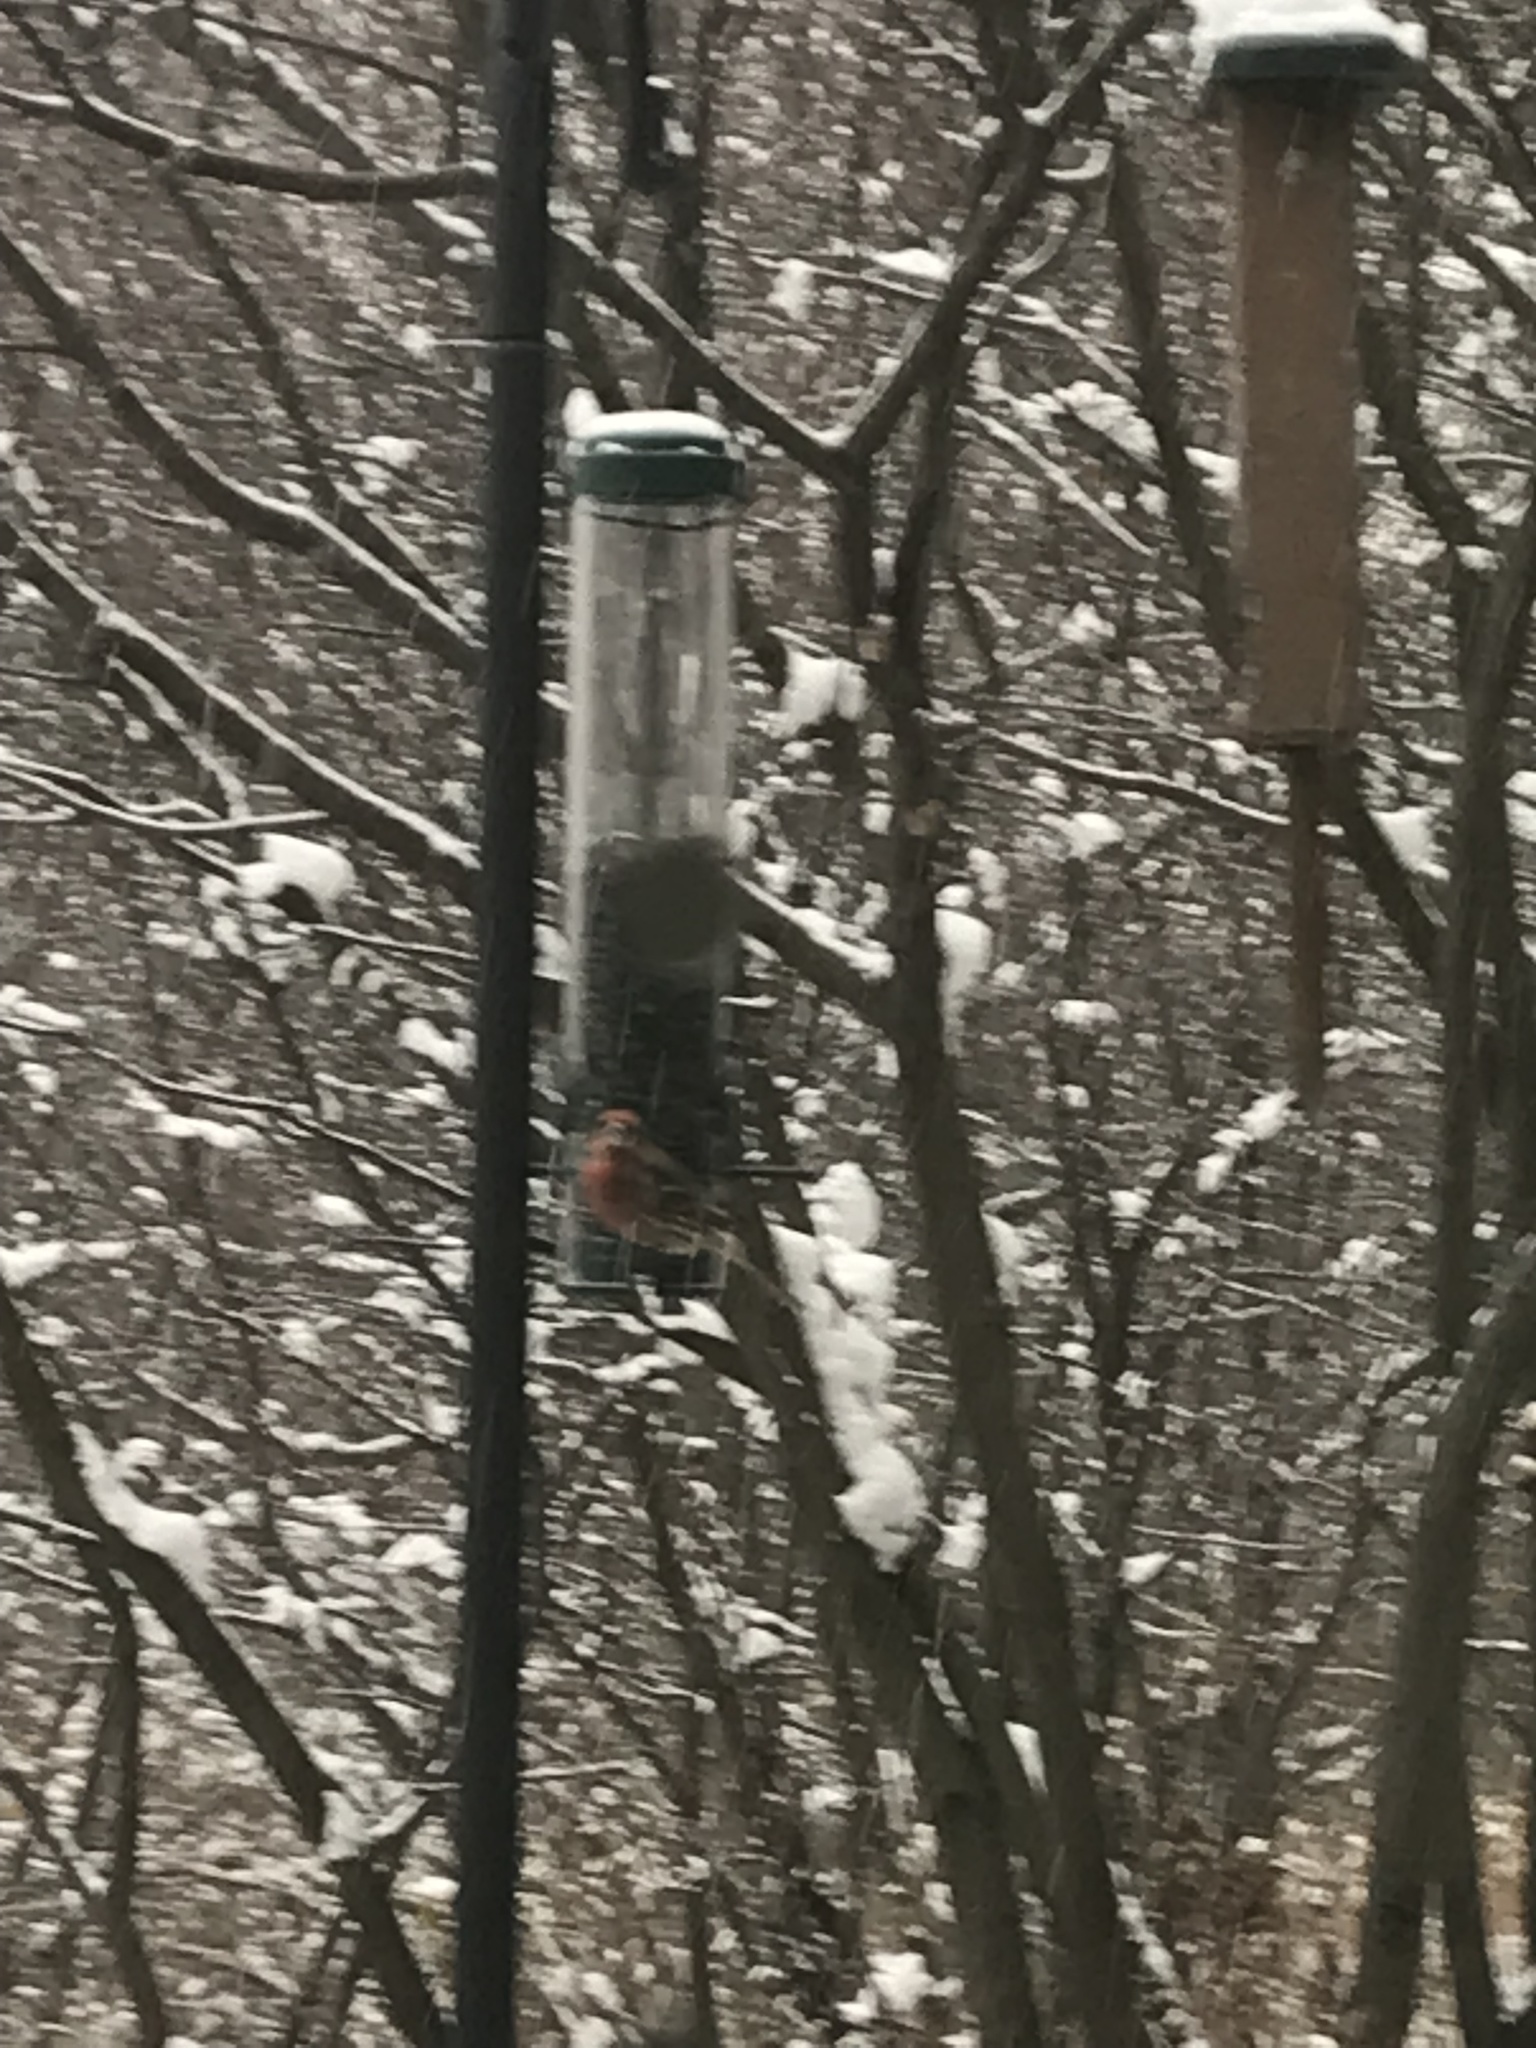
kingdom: Animalia
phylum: Chordata
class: Aves
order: Passeriformes
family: Fringillidae
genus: Haemorhous
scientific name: Haemorhous mexicanus
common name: House finch
